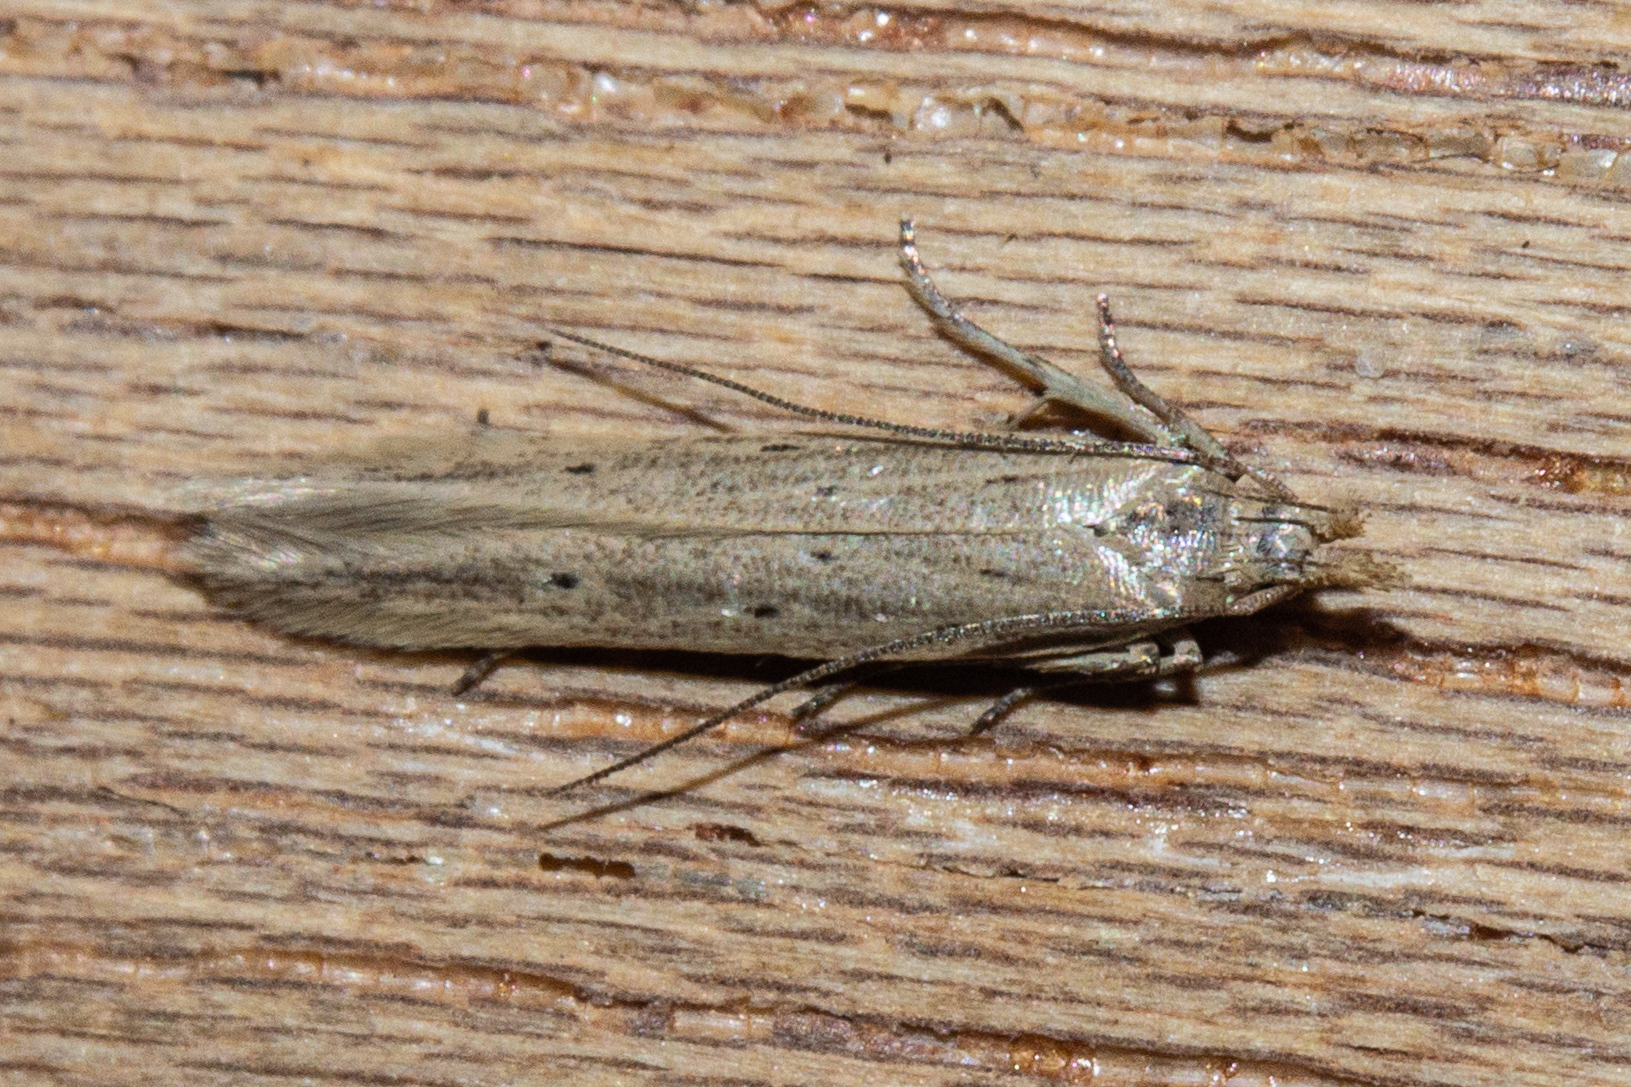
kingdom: Animalia
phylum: Arthropoda
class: Insecta
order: Lepidoptera
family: Gelechiidae
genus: Epiphthora
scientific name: Epiphthora calamogonus
